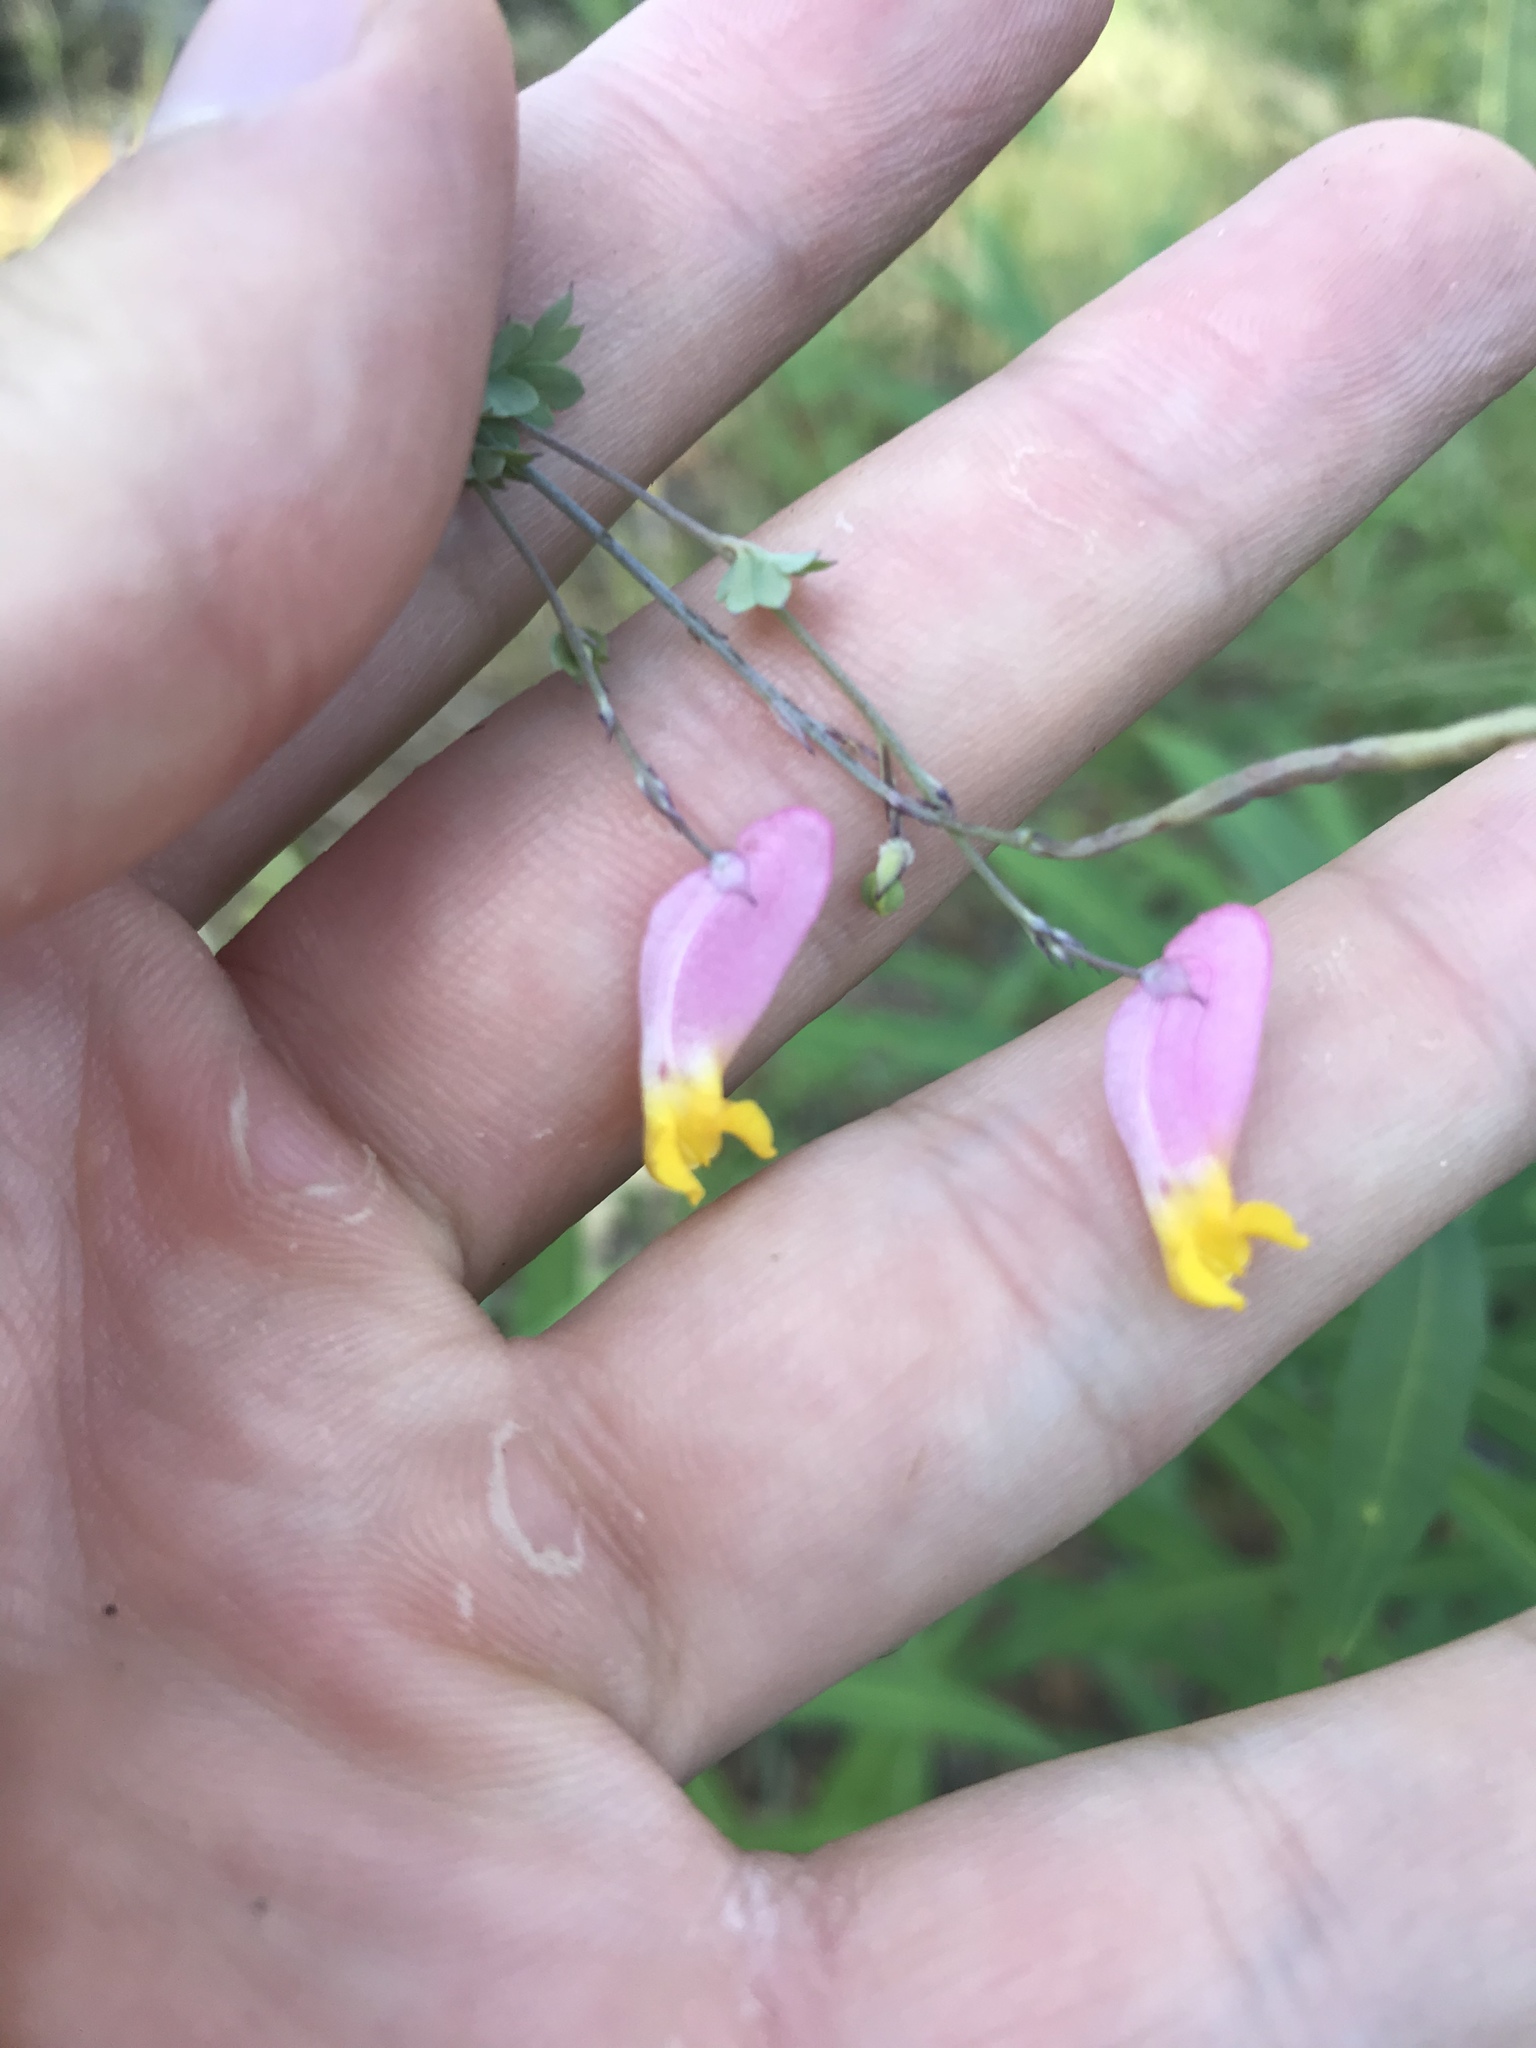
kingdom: Plantae
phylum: Tracheophyta
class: Magnoliopsida
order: Ranunculales
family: Papaveraceae
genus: Capnoides
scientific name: Capnoides sempervirens
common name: Rock harlequin
